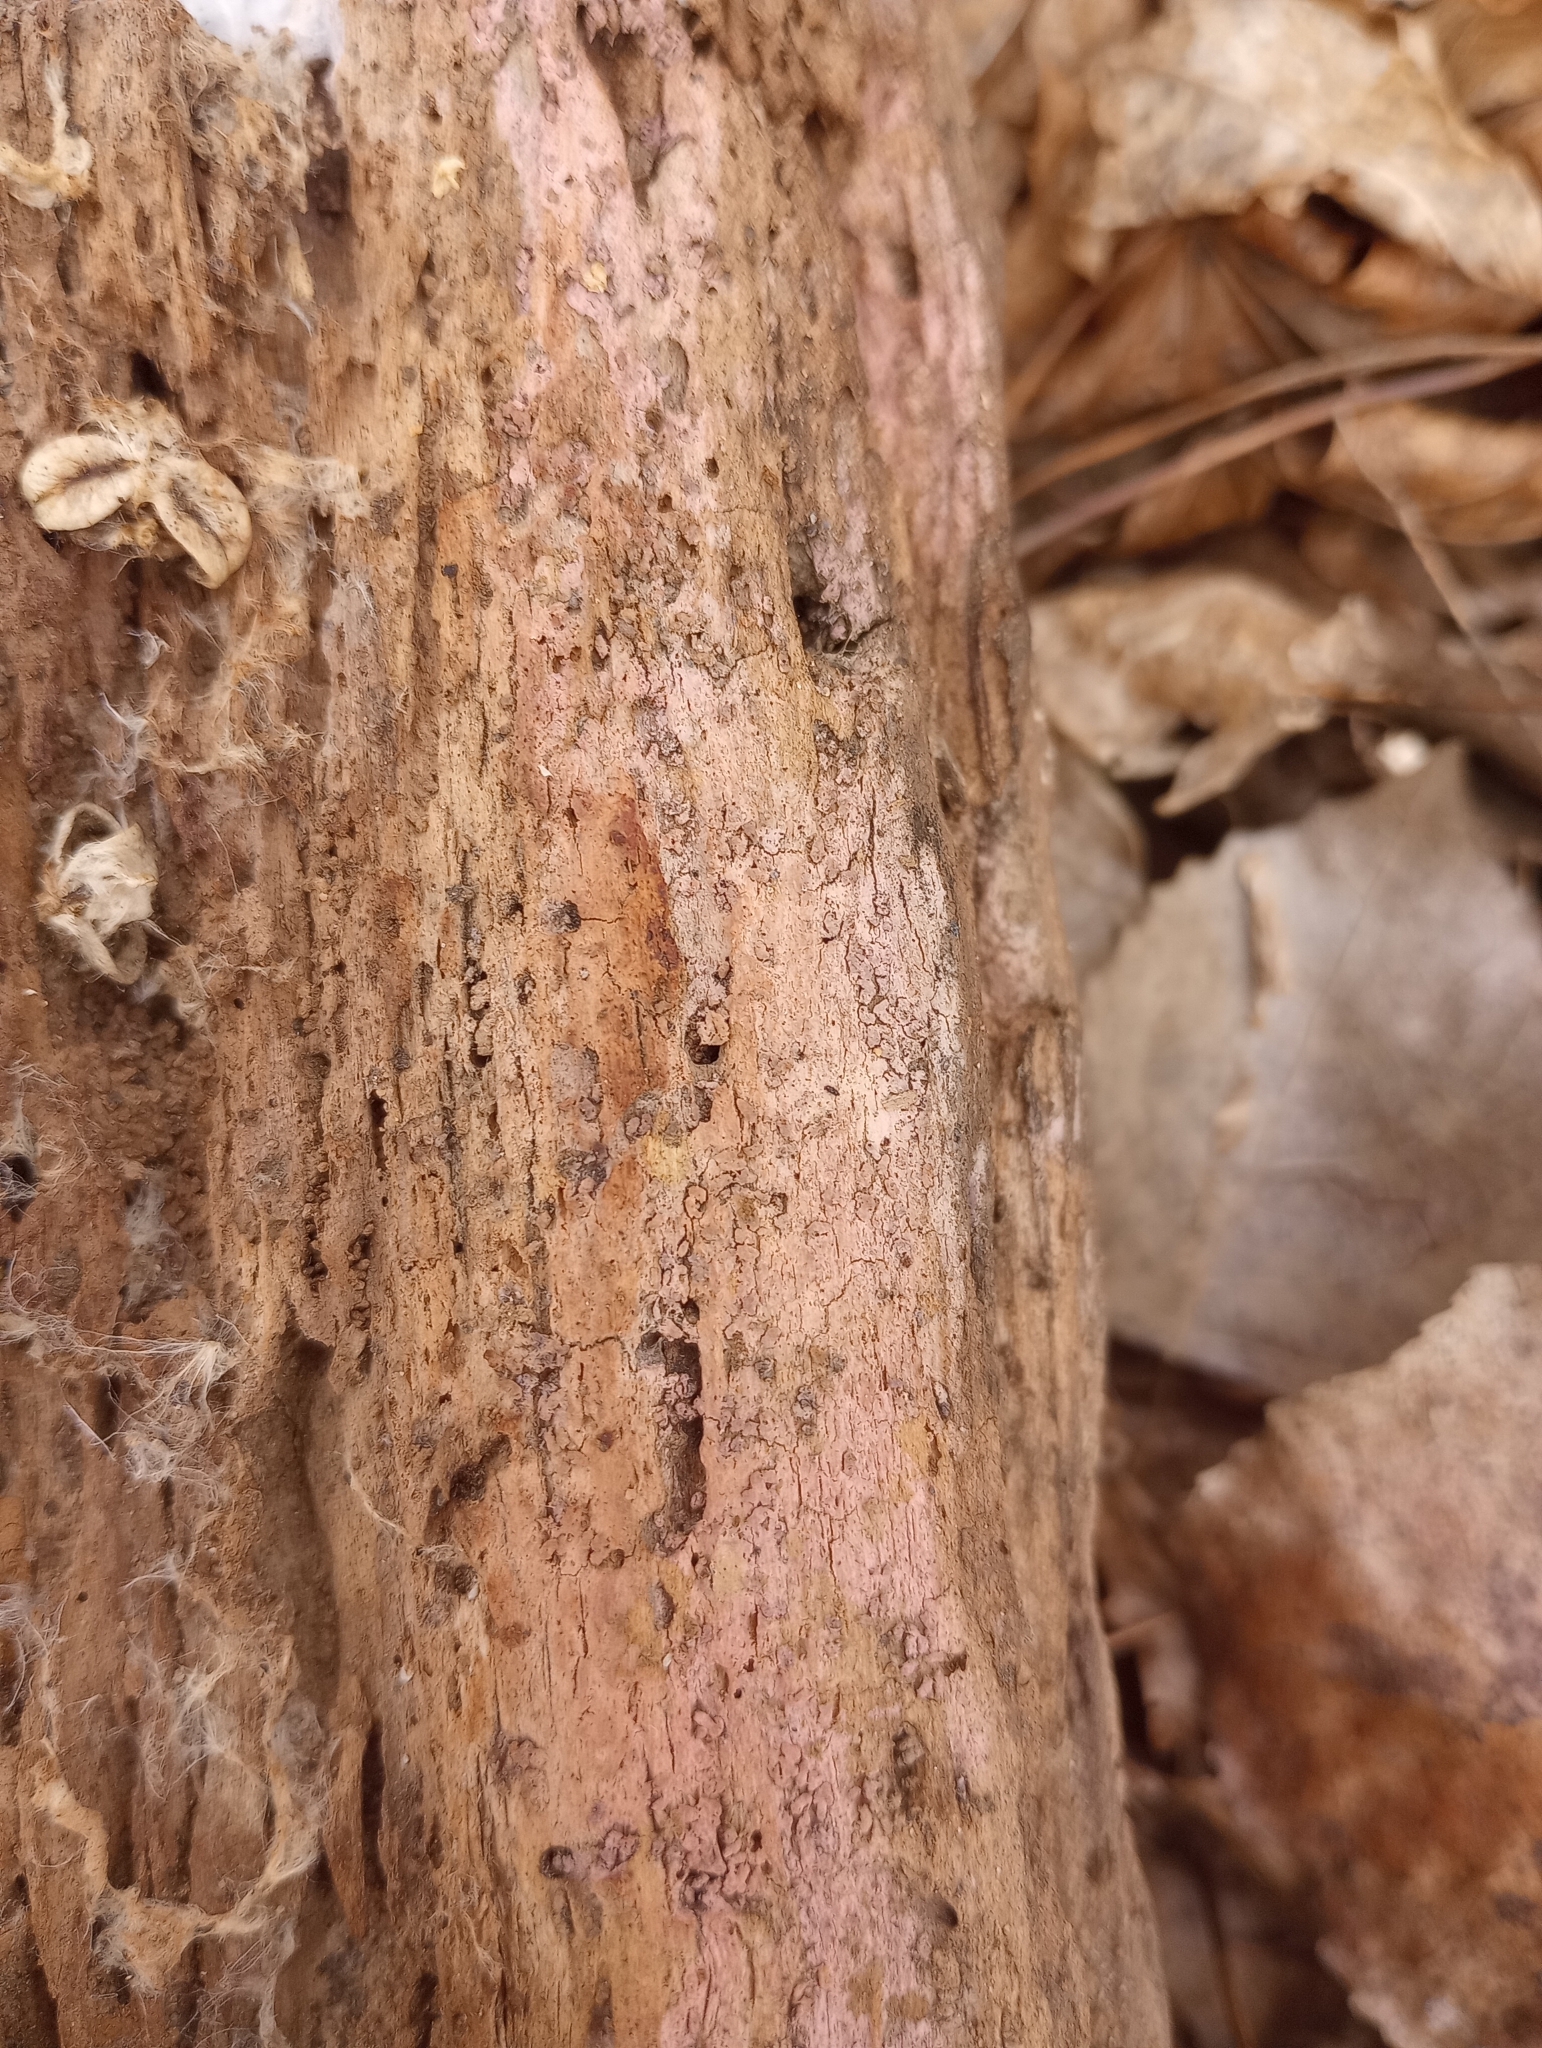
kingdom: Fungi
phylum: Basidiomycota
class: Agaricomycetes
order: Cantharellales
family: Tulasnellaceae
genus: Tulasnella
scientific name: Tulasnella violea
